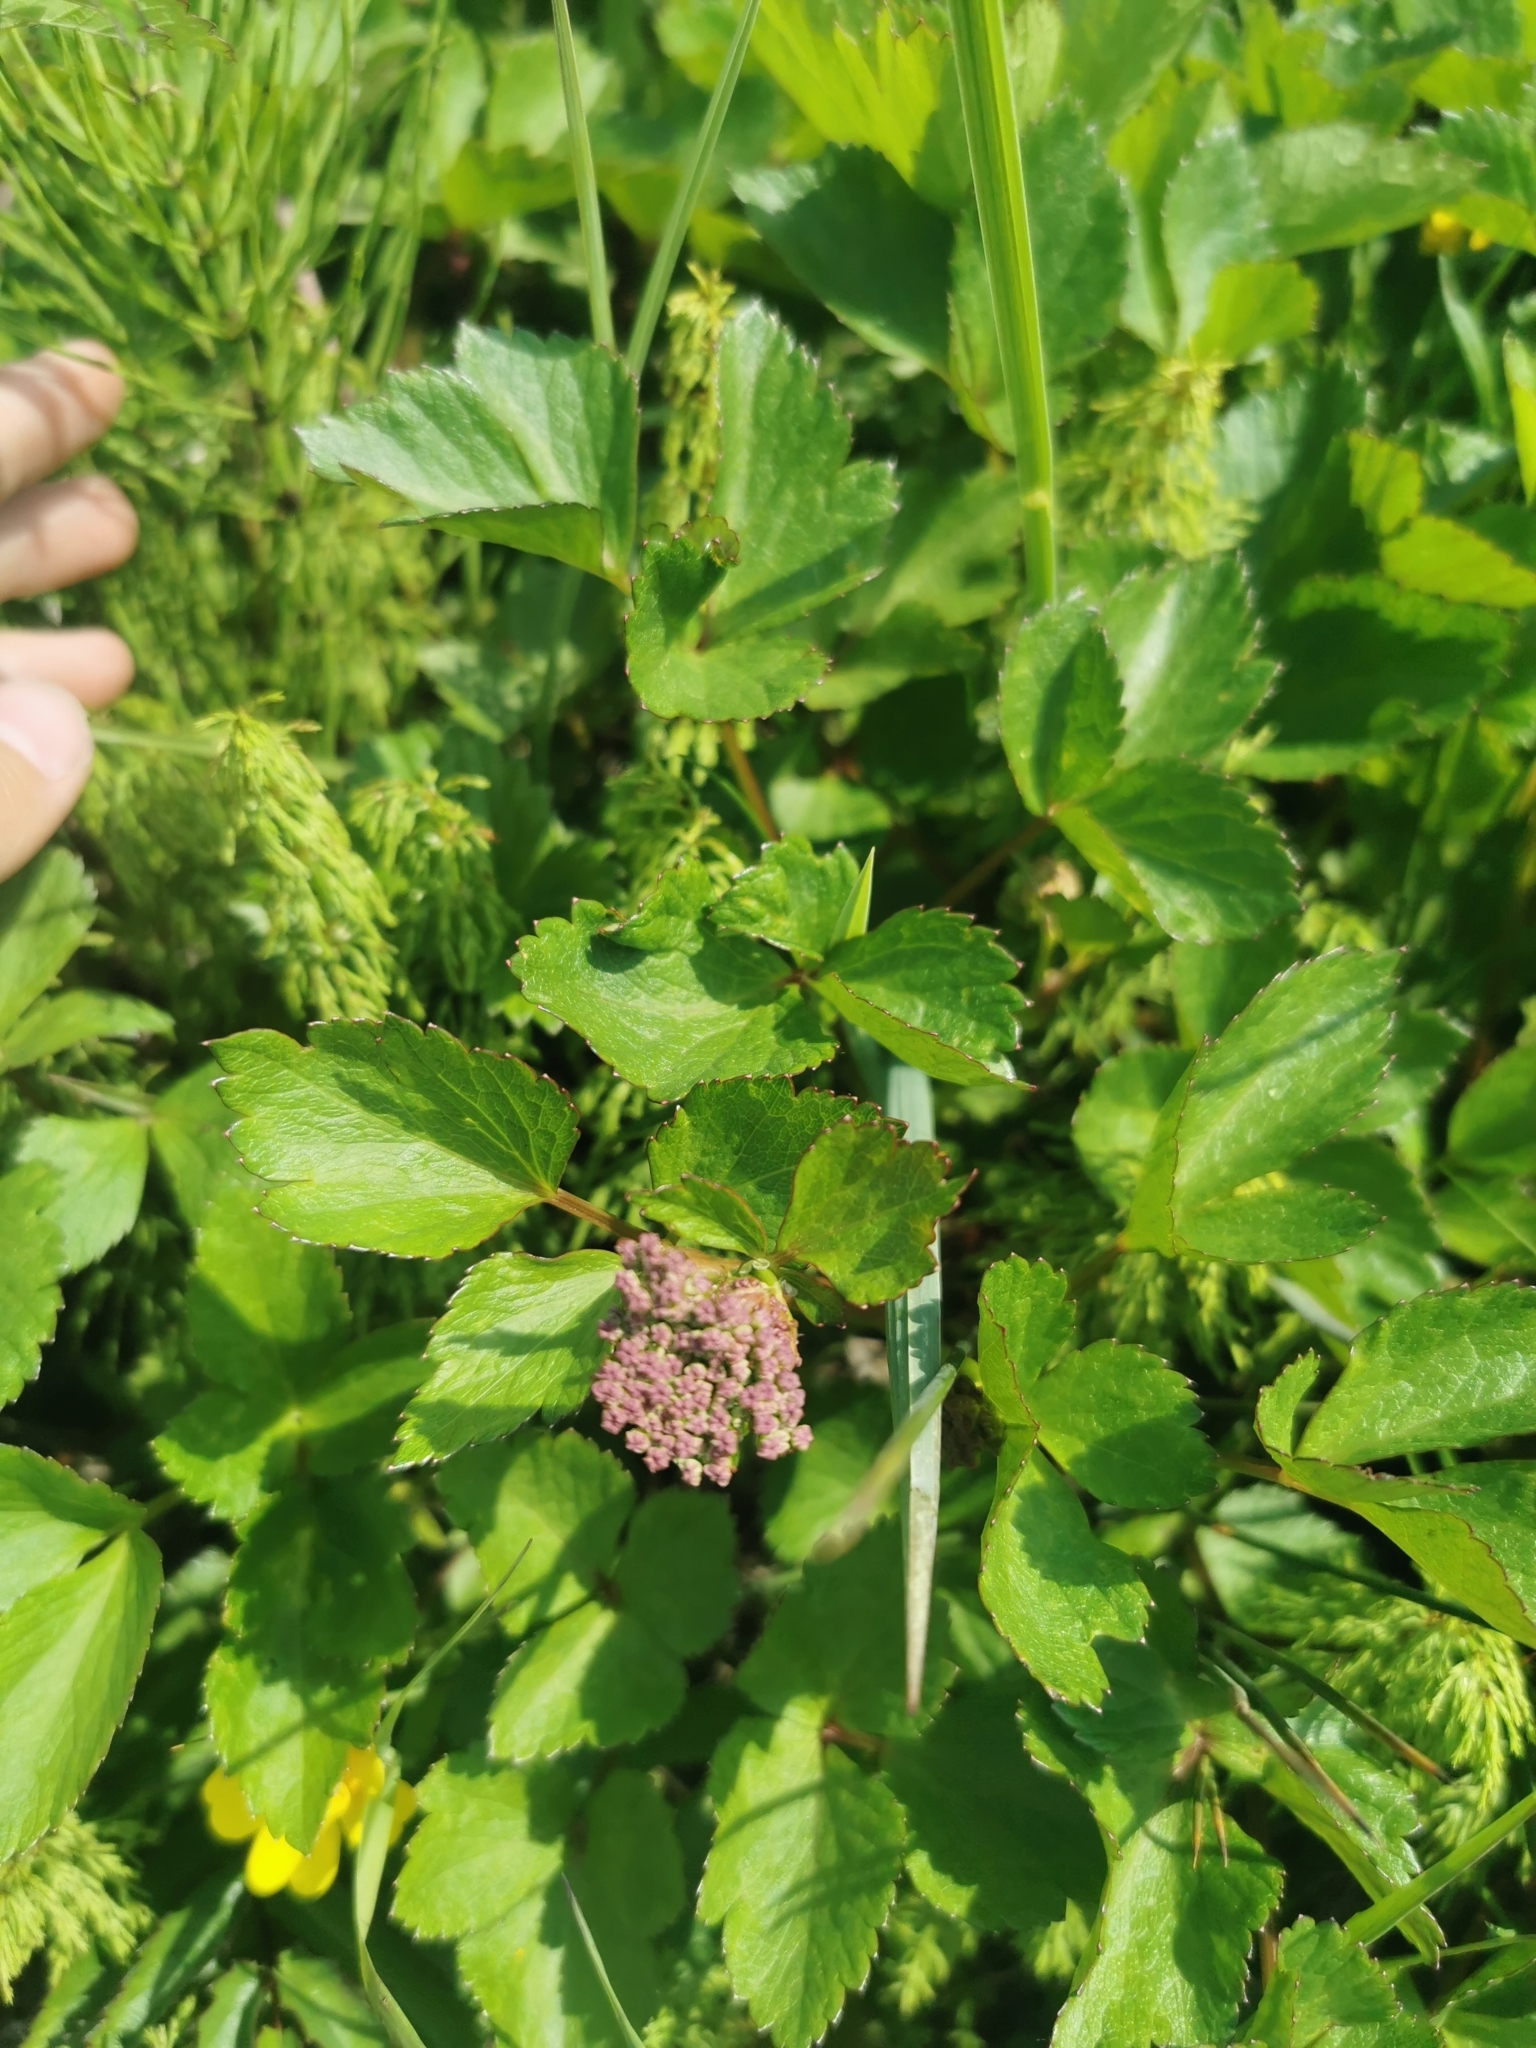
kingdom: Plantae
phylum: Tracheophyta
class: Magnoliopsida
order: Apiales
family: Apiaceae
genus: Ligusticum
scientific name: Ligusticum scothicum
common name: Beach lovage
